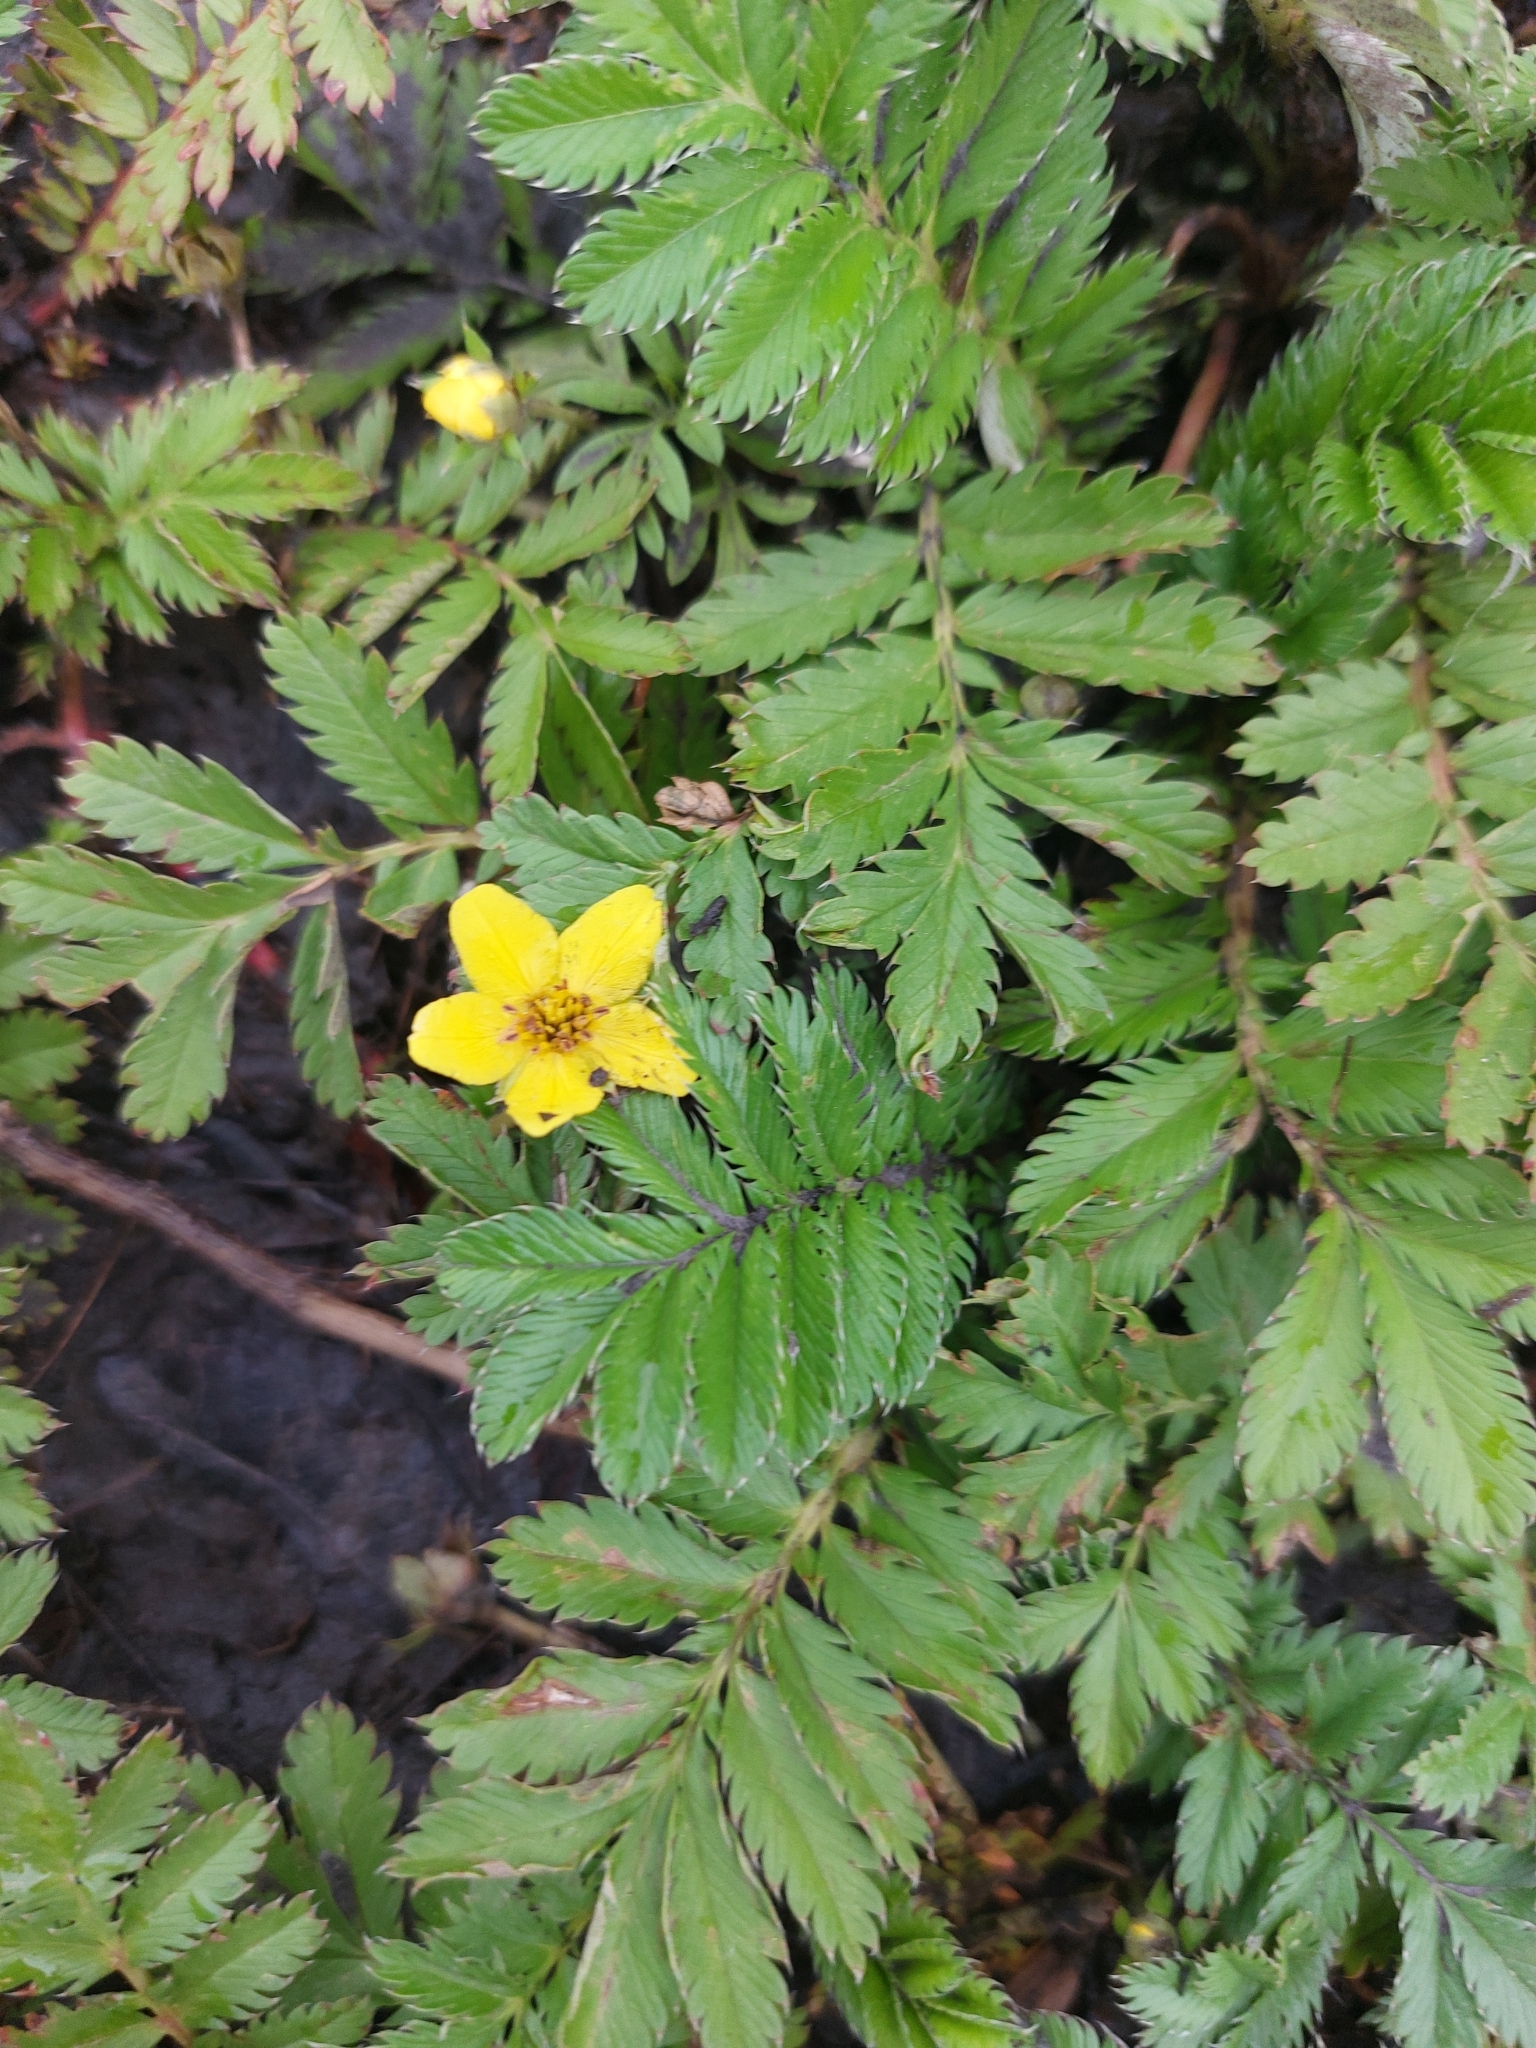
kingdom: Plantae
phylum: Tracheophyta
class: Magnoliopsida
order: Rosales
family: Rosaceae
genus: Argentina
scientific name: Argentina anserina
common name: Common silverweed
